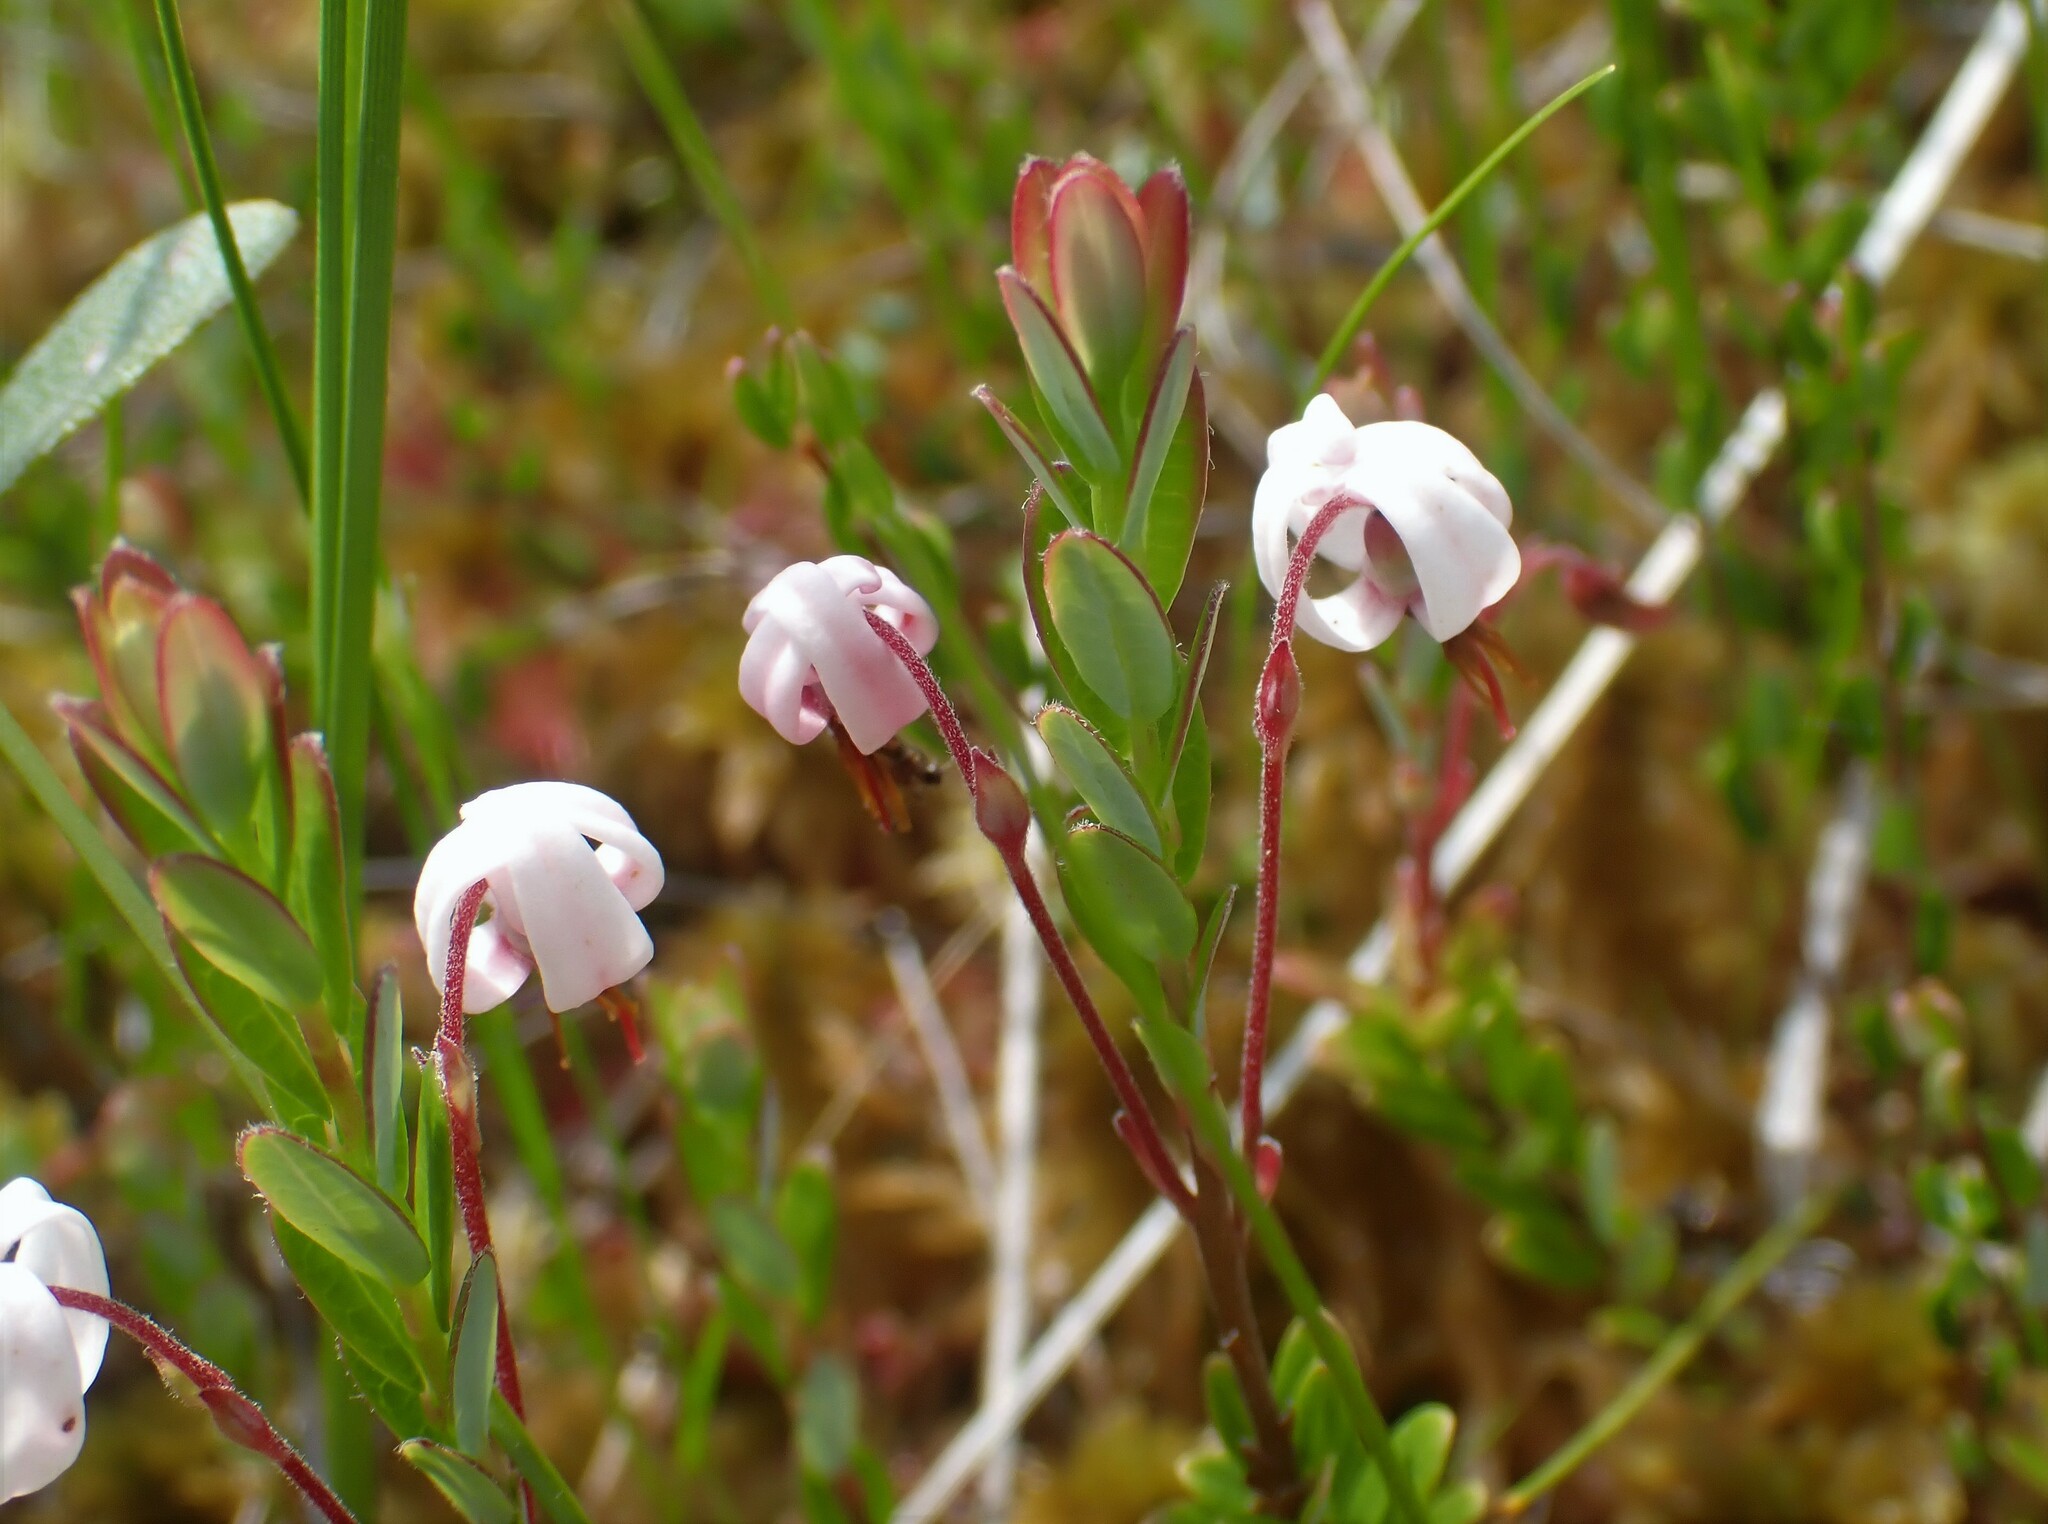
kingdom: Plantae
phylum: Tracheophyta
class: Magnoliopsida
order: Ericales
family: Ericaceae
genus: Vaccinium
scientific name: Vaccinium macrocarpon
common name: American cranberry
